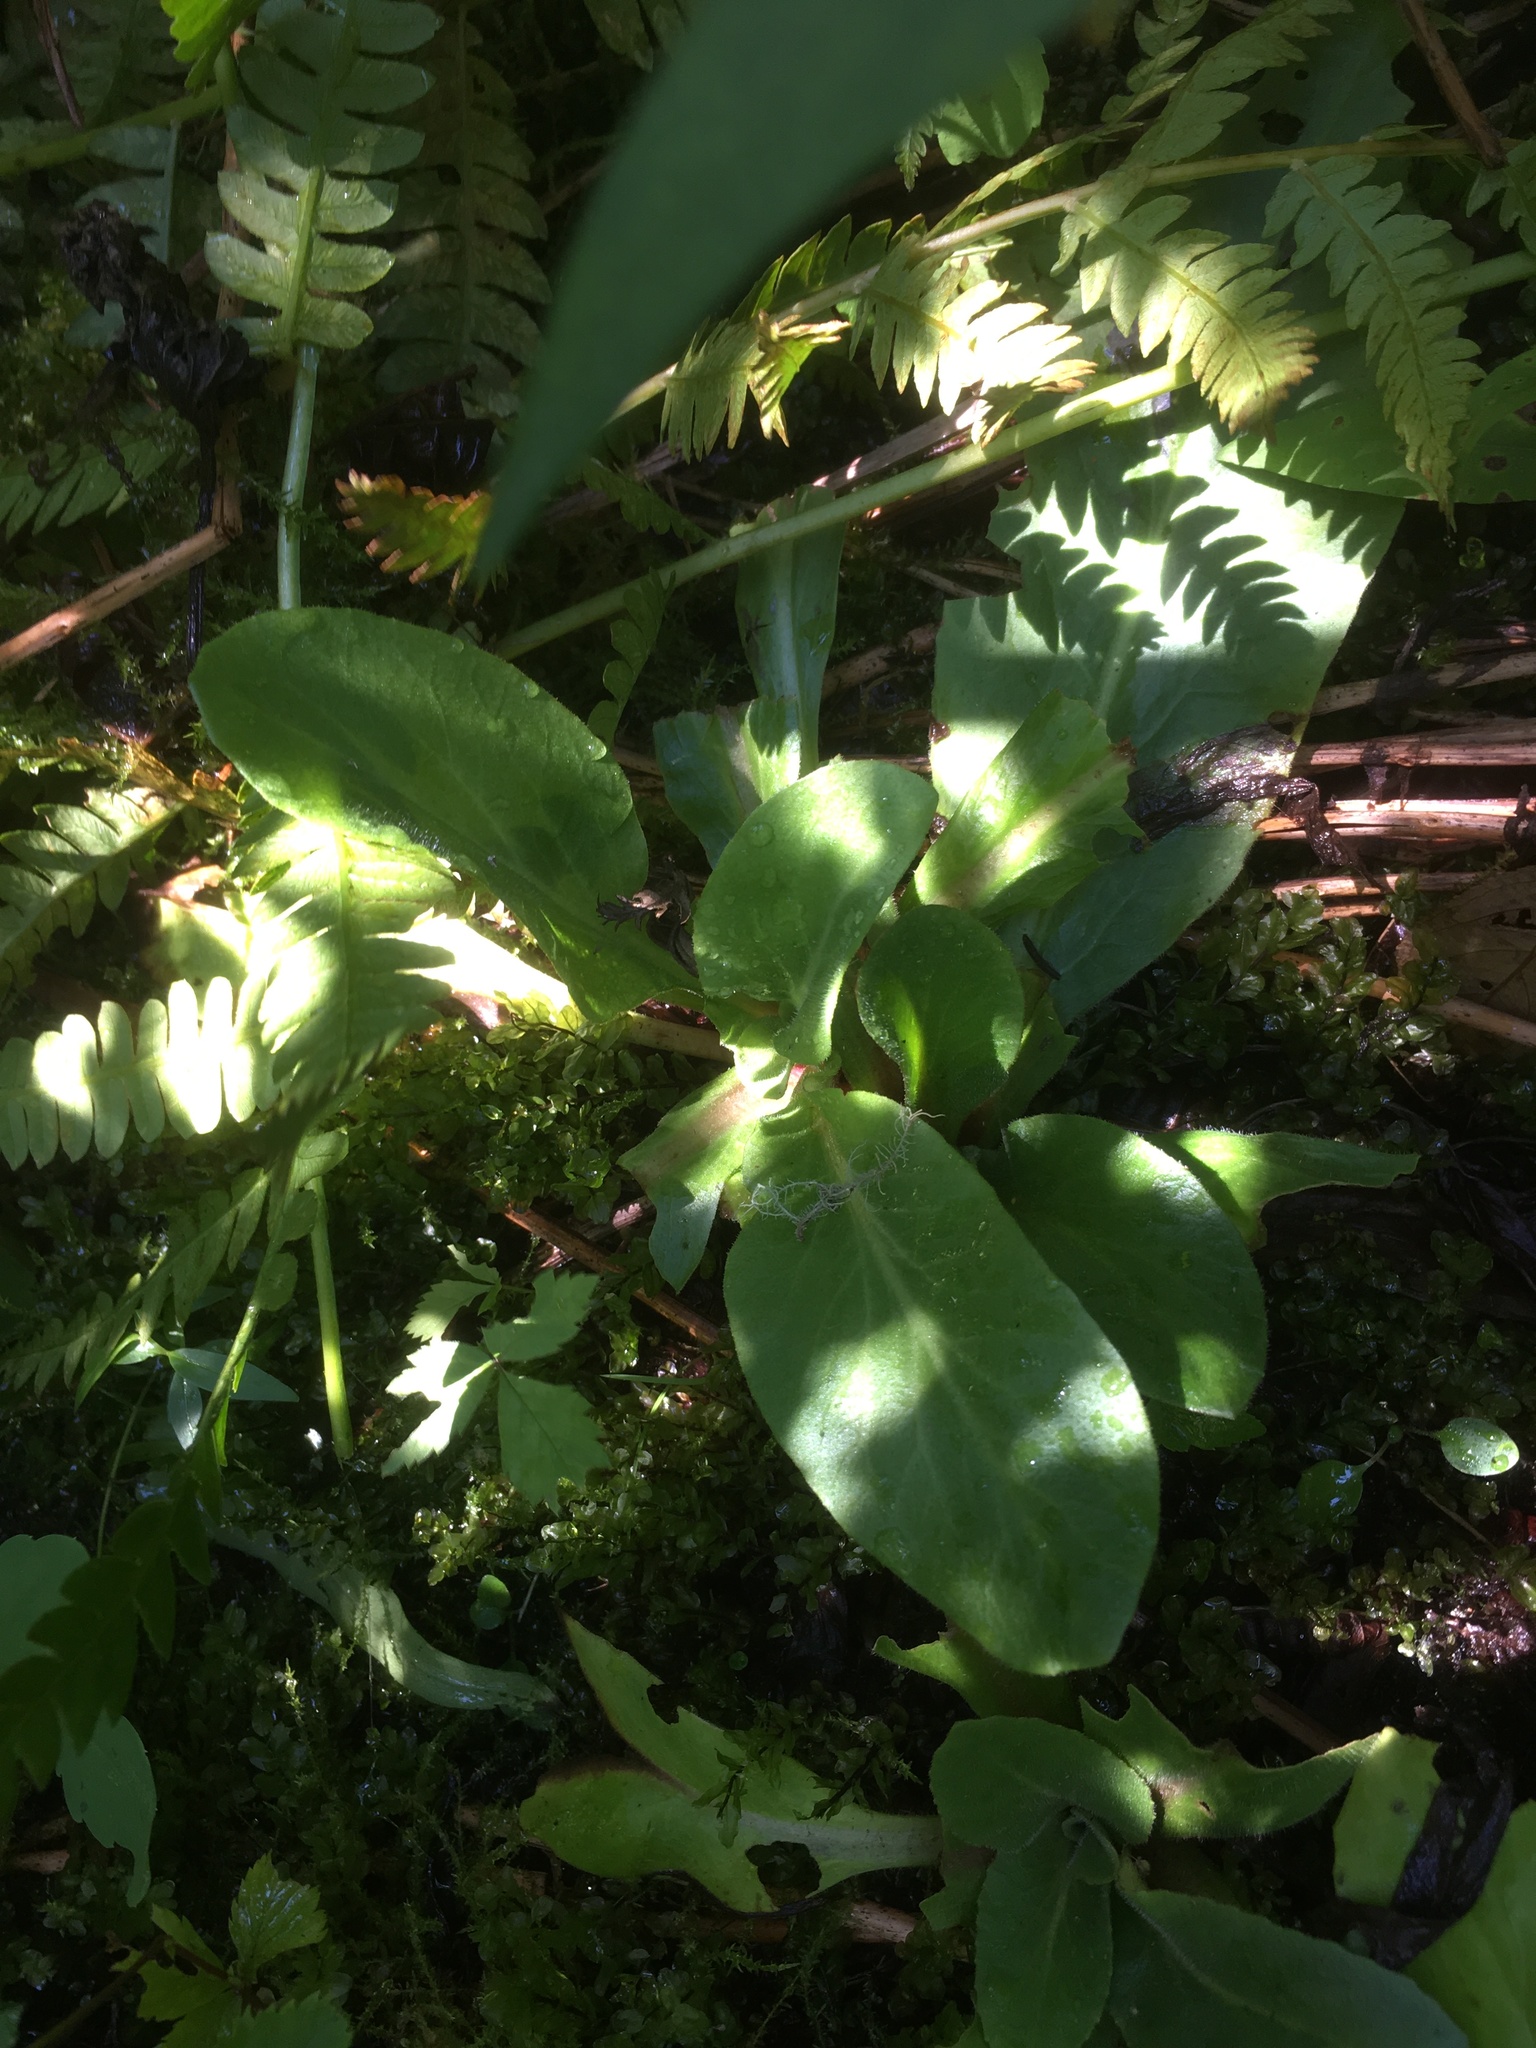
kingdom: Plantae
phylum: Tracheophyta
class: Magnoliopsida
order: Saxifragales
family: Saxifragaceae
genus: Micranthes
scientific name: Micranthes pensylvanica
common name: Marsh saxifrage
